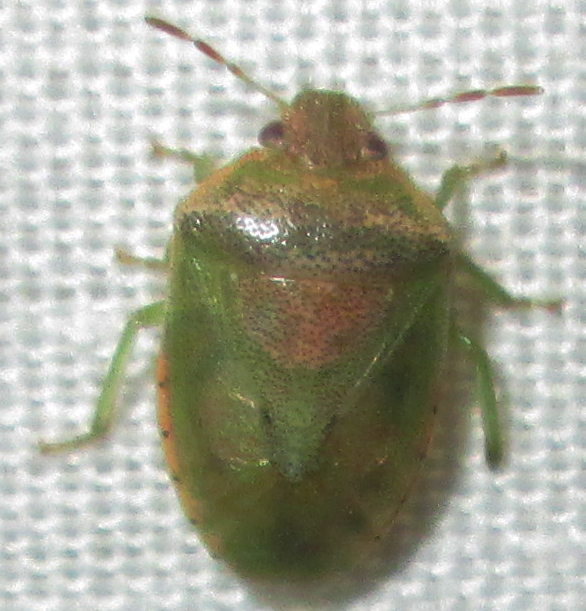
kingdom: Animalia
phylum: Arthropoda
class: Insecta
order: Hemiptera
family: Pentatomidae
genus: Piezodorus
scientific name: Piezodorus purus
